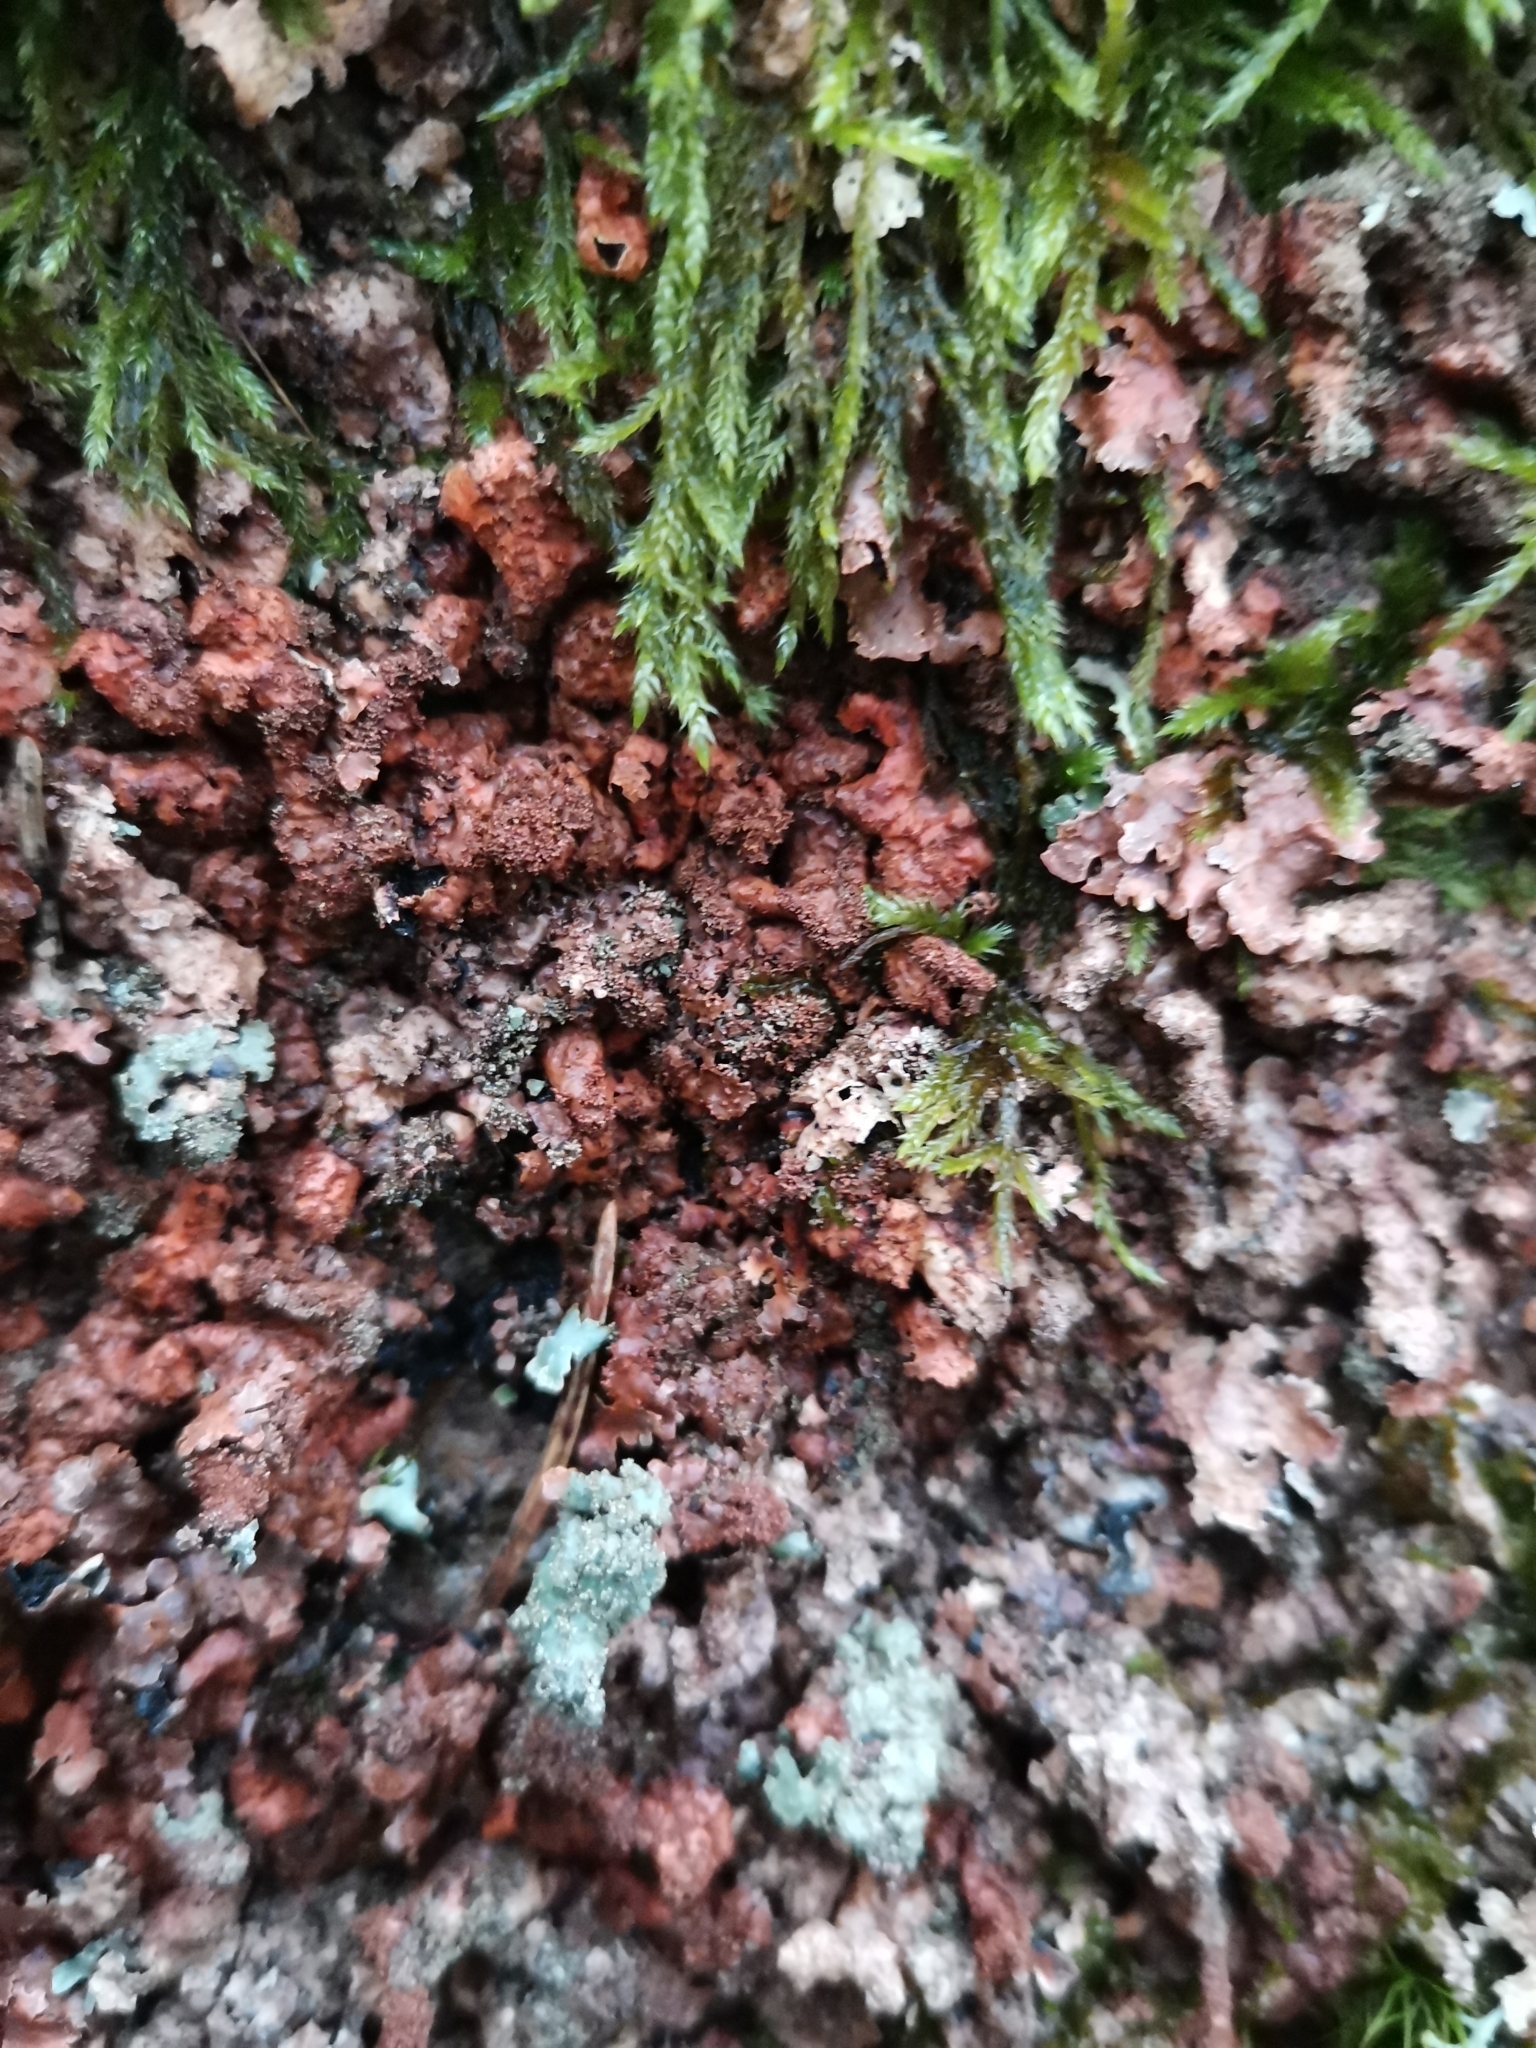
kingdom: Fungi
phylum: Ascomycota
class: Lecanoromycetes
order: Lecanorales
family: Parmeliaceae
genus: Parmelia
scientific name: Parmelia saxatilis
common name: Salted shield lichen
